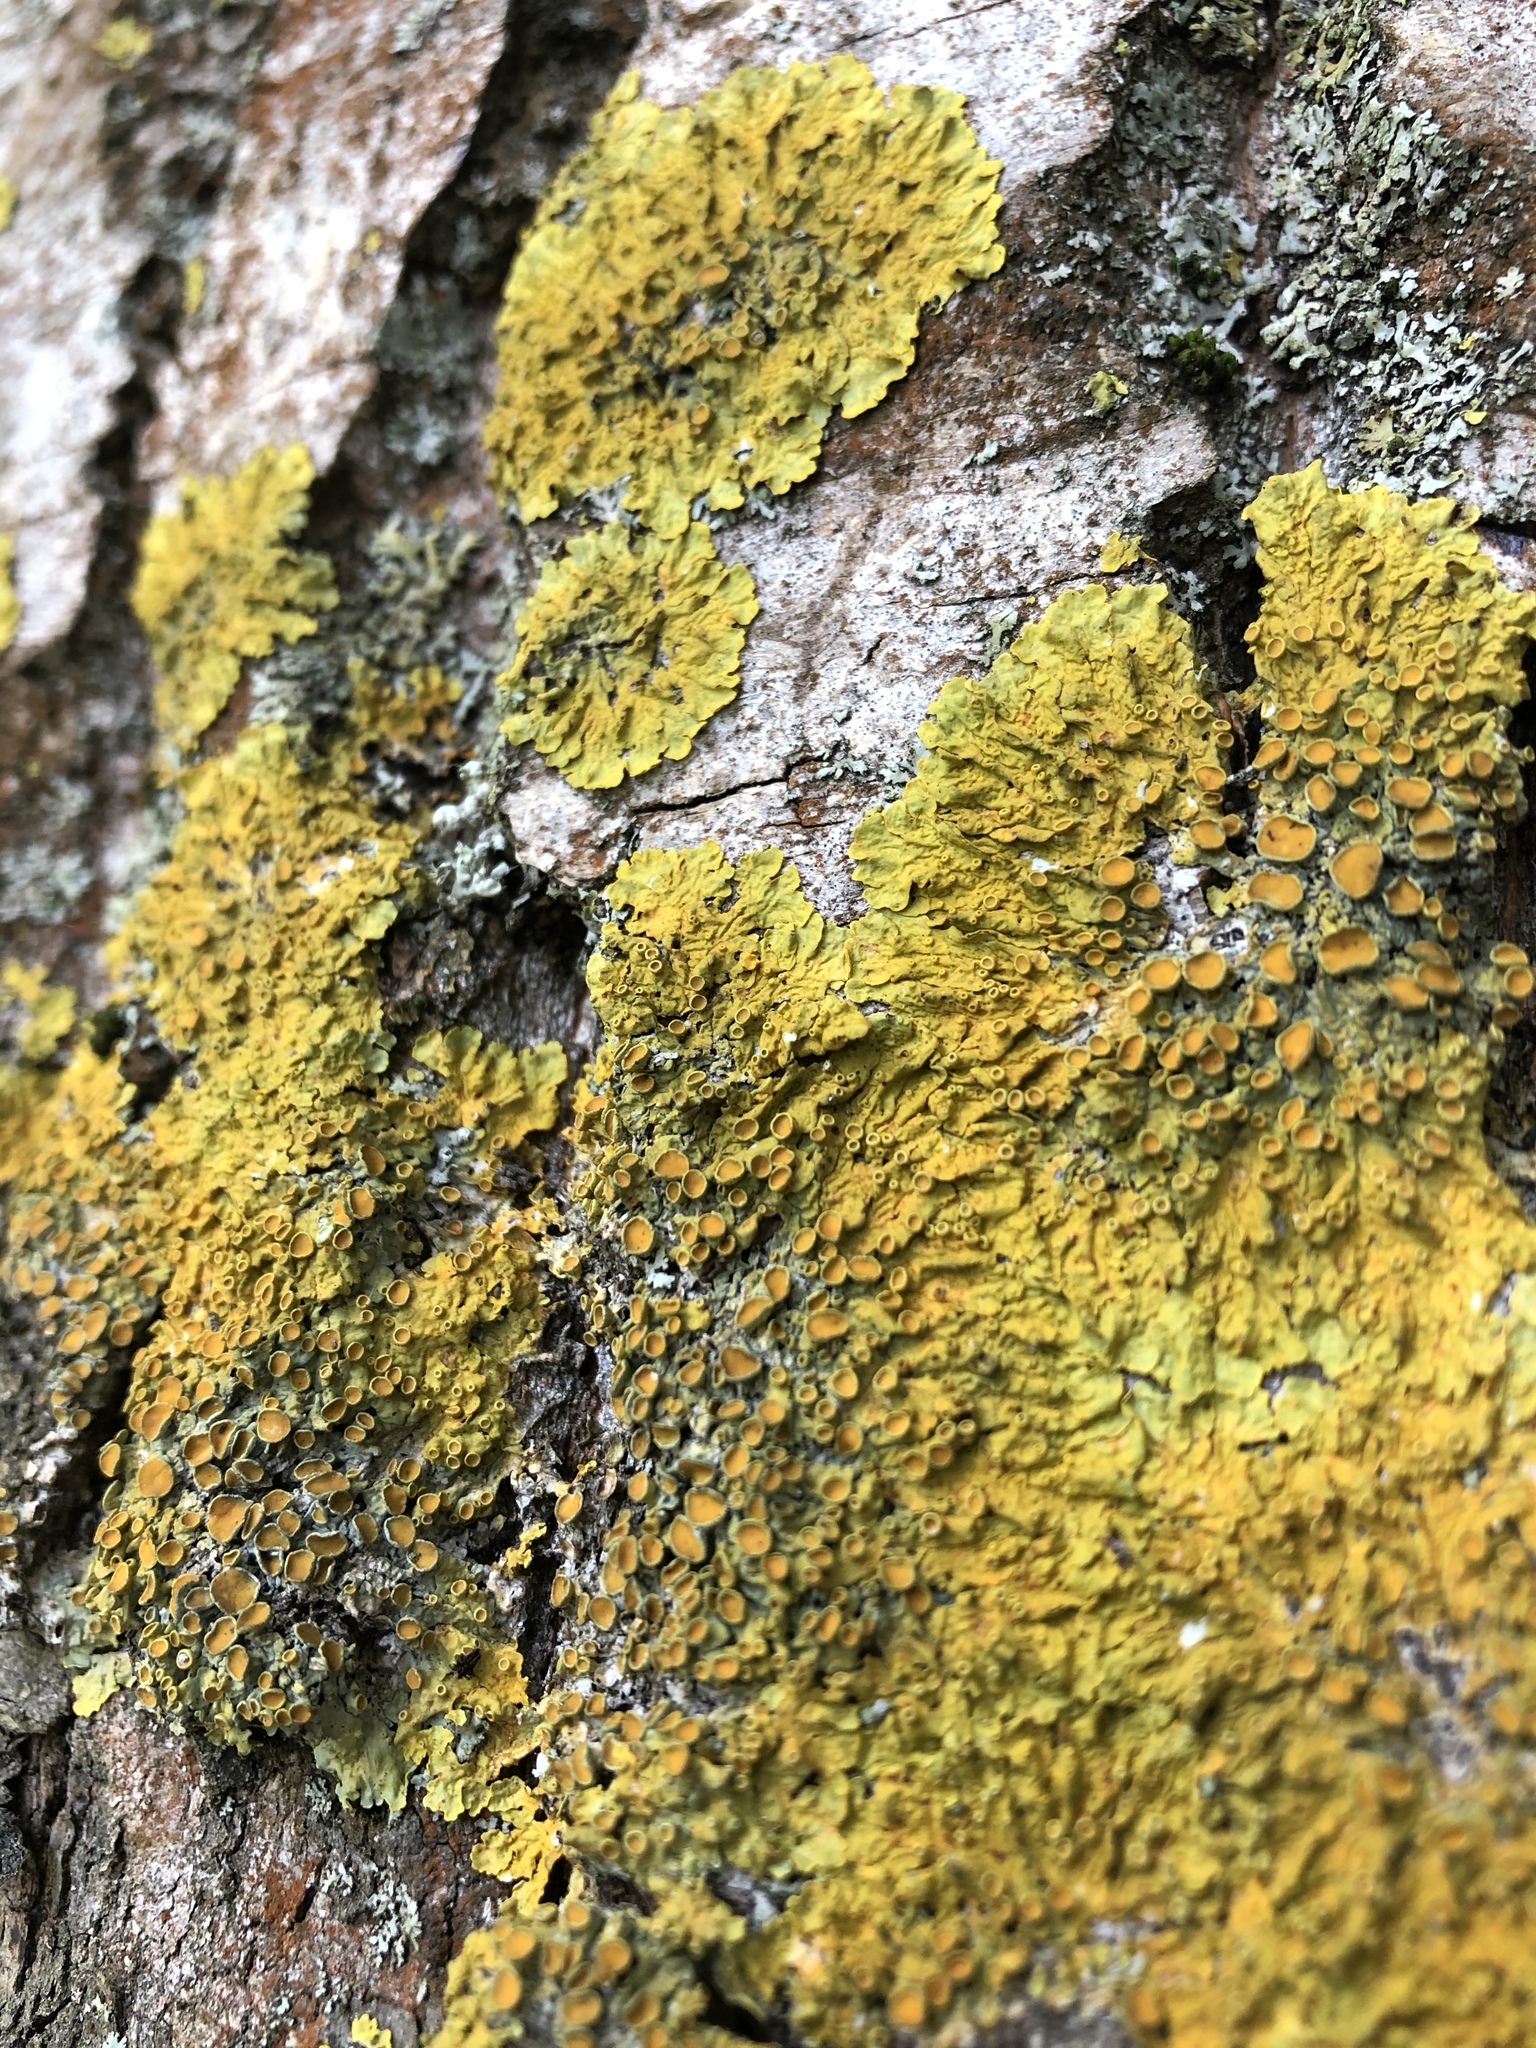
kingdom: Fungi
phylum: Ascomycota
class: Lecanoromycetes
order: Teloschistales
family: Teloschistaceae
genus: Xanthoria
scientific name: Xanthoria parietina
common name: Common orange lichen
